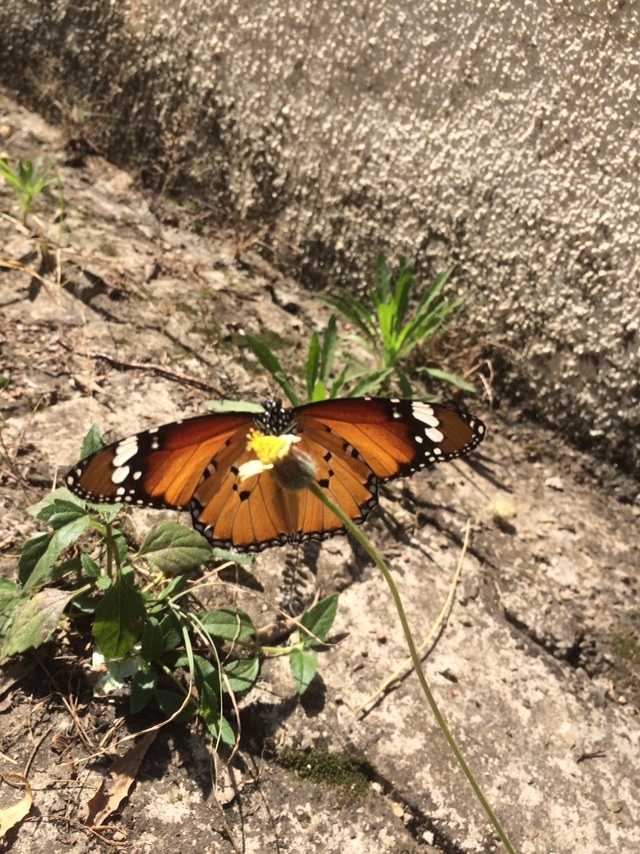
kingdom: Animalia
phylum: Arthropoda
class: Insecta
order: Lepidoptera
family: Nymphalidae
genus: Danaus
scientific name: Danaus chrysippus
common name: Plain tiger
